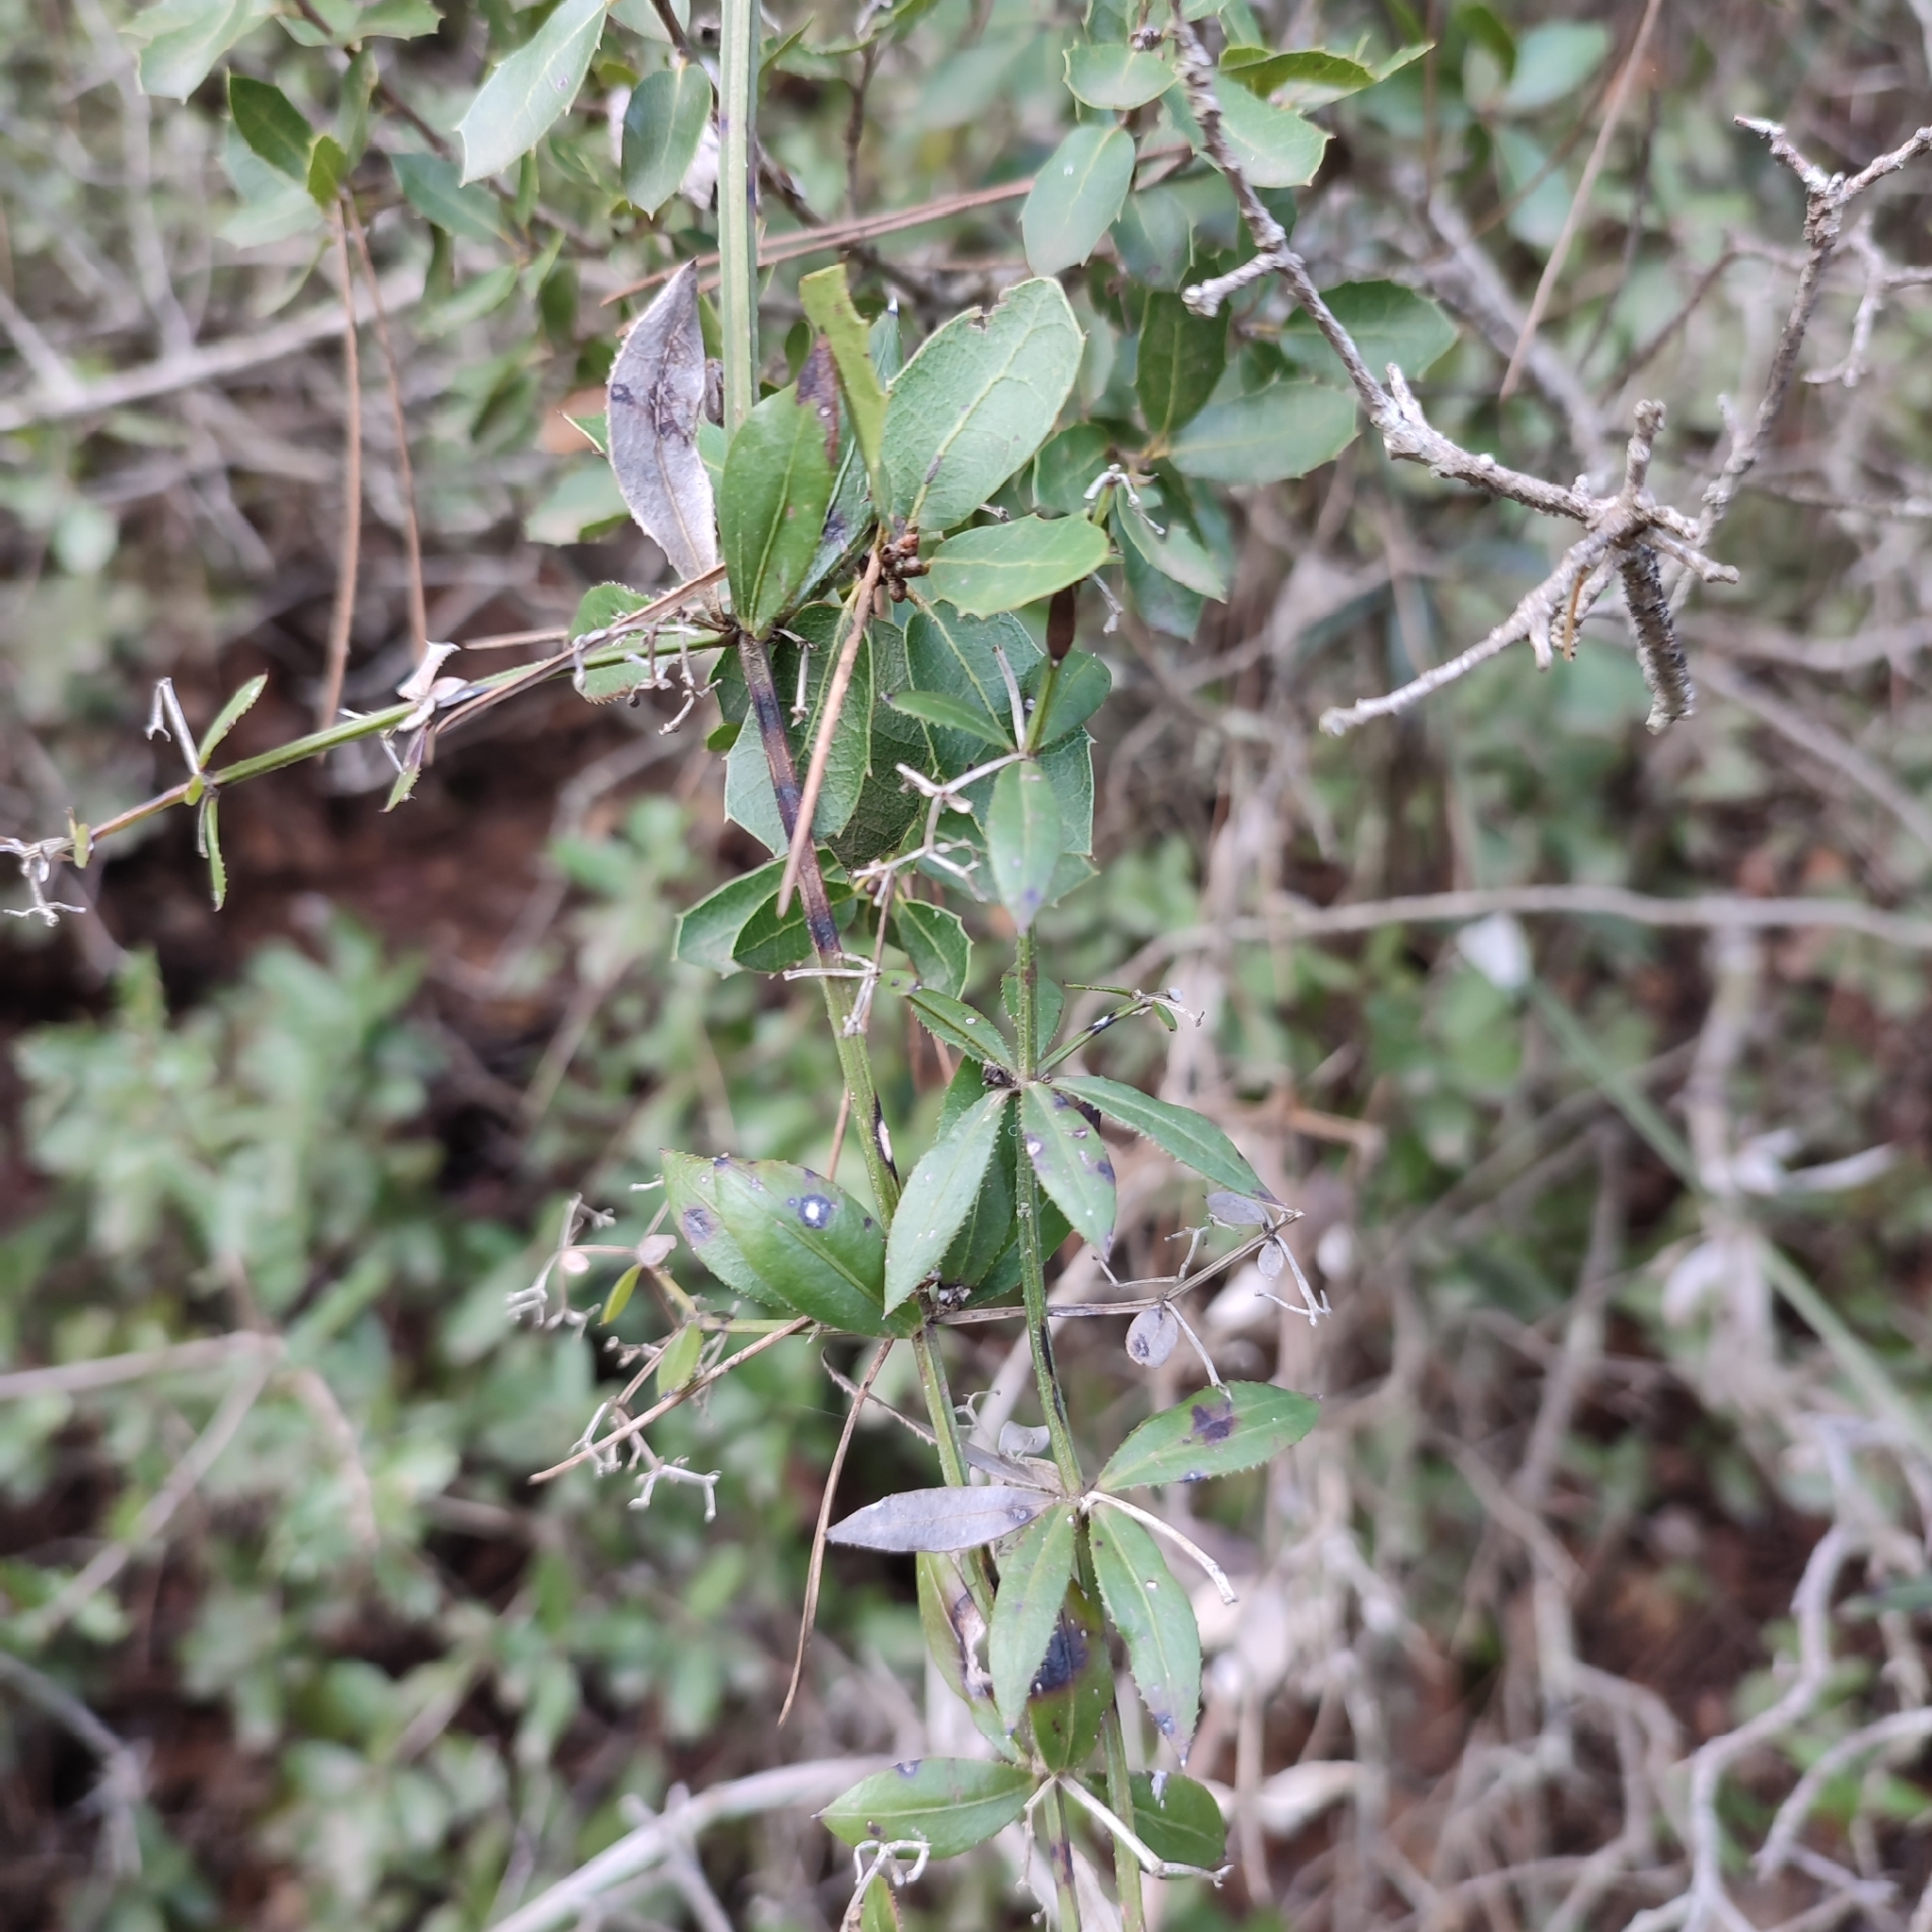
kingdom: Plantae
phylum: Tracheophyta
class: Magnoliopsida
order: Gentianales
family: Rubiaceae
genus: Rubia
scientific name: Rubia peregrina
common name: Wild madder
